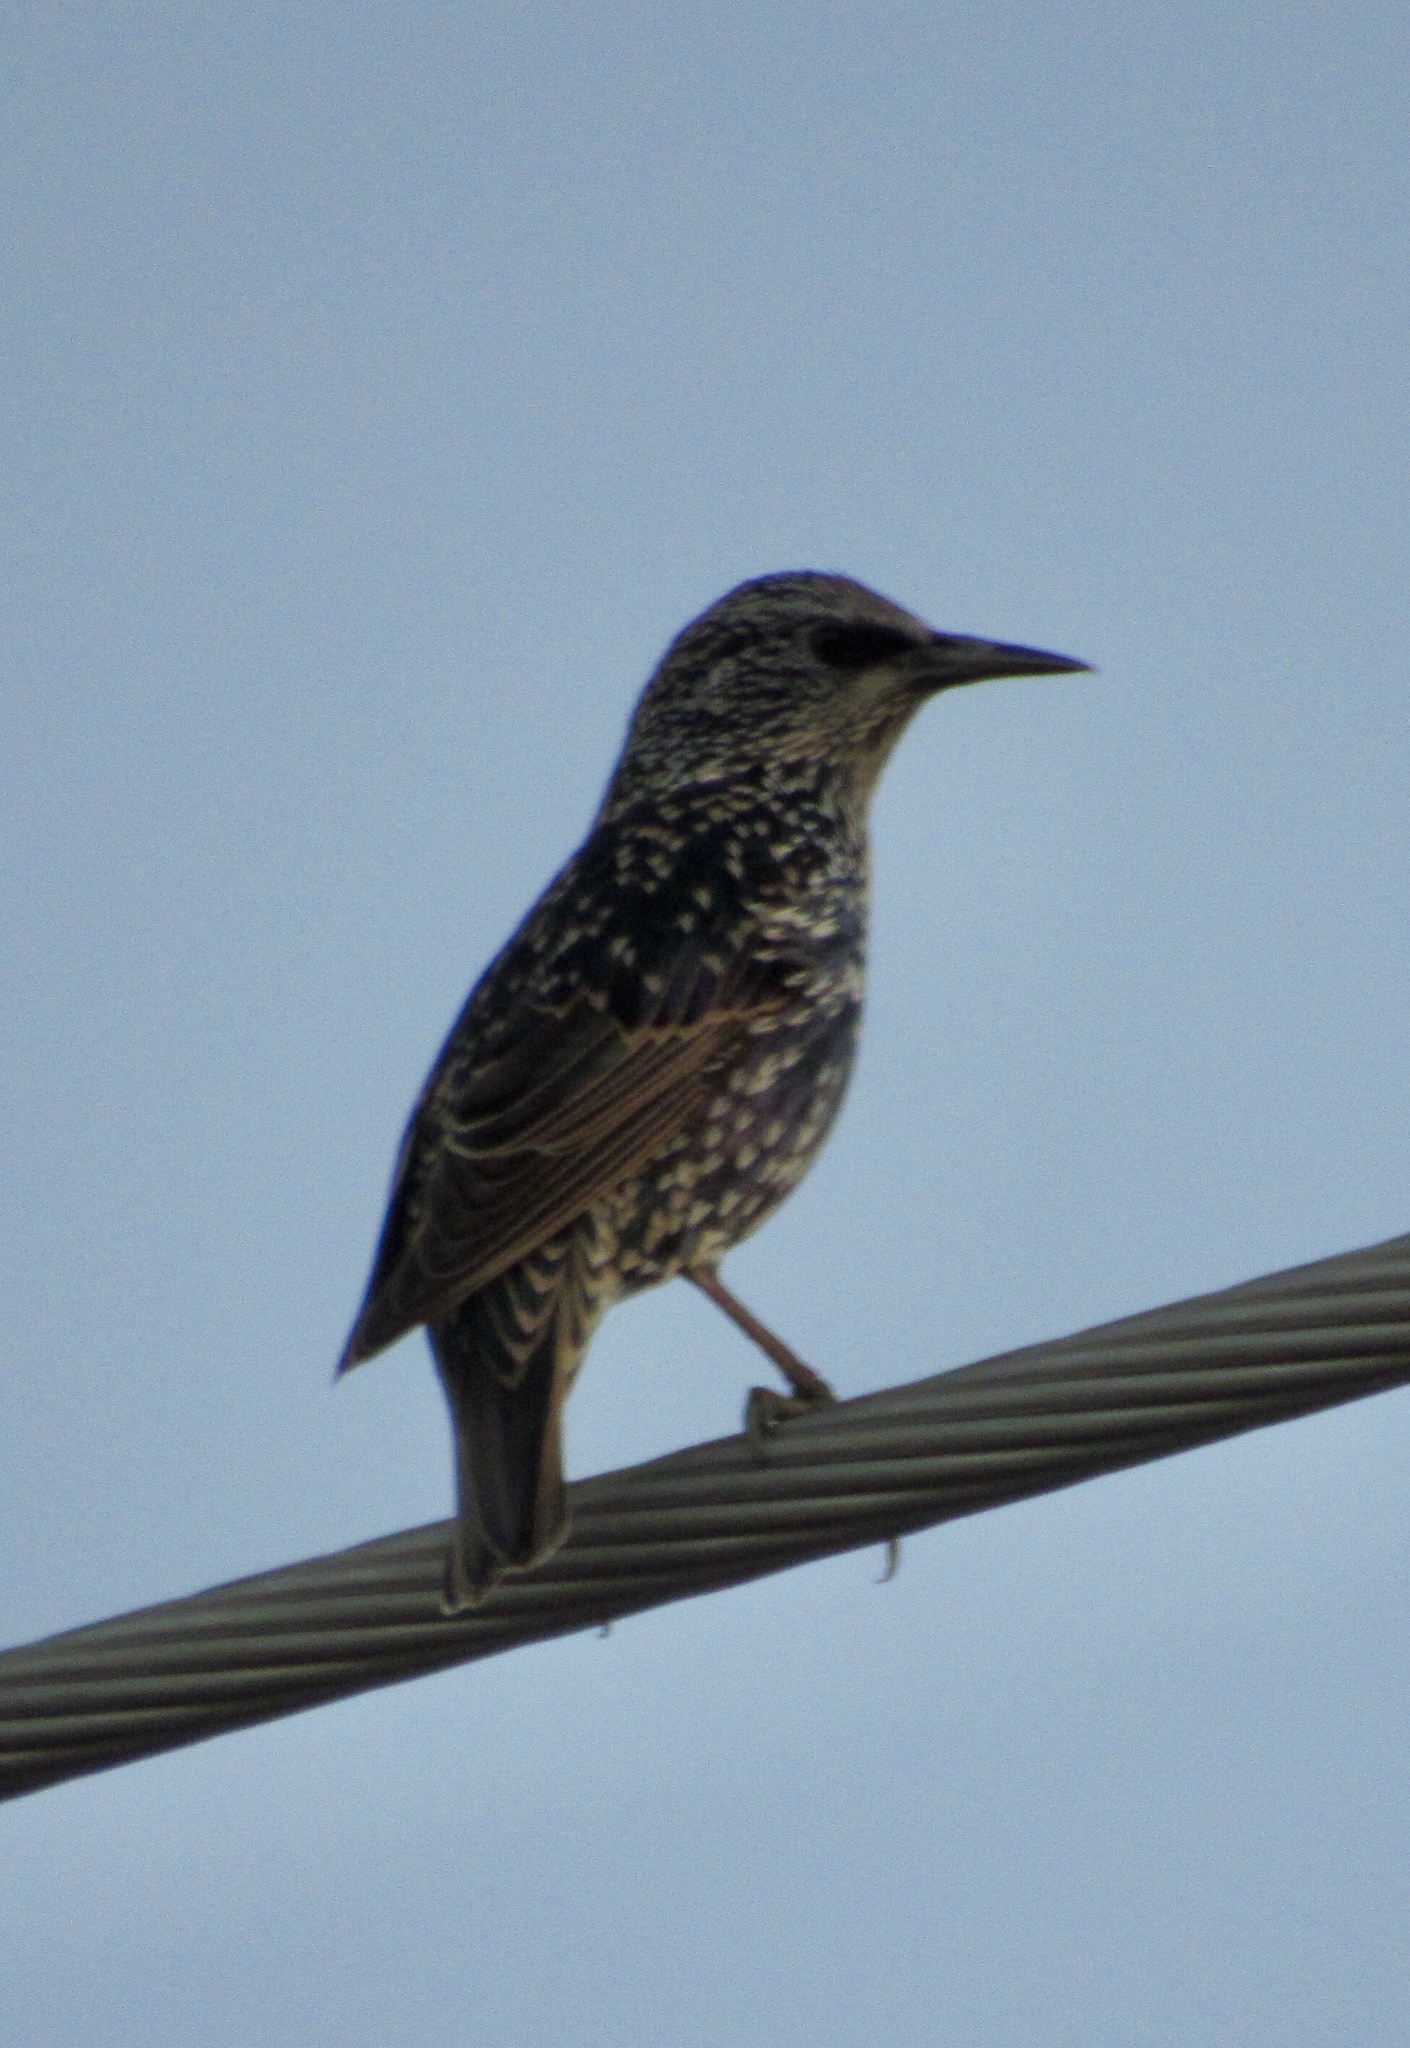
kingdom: Animalia
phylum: Chordata
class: Aves
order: Passeriformes
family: Sturnidae
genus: Sturnus
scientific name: Sturnus vulgaris
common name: Common starling
